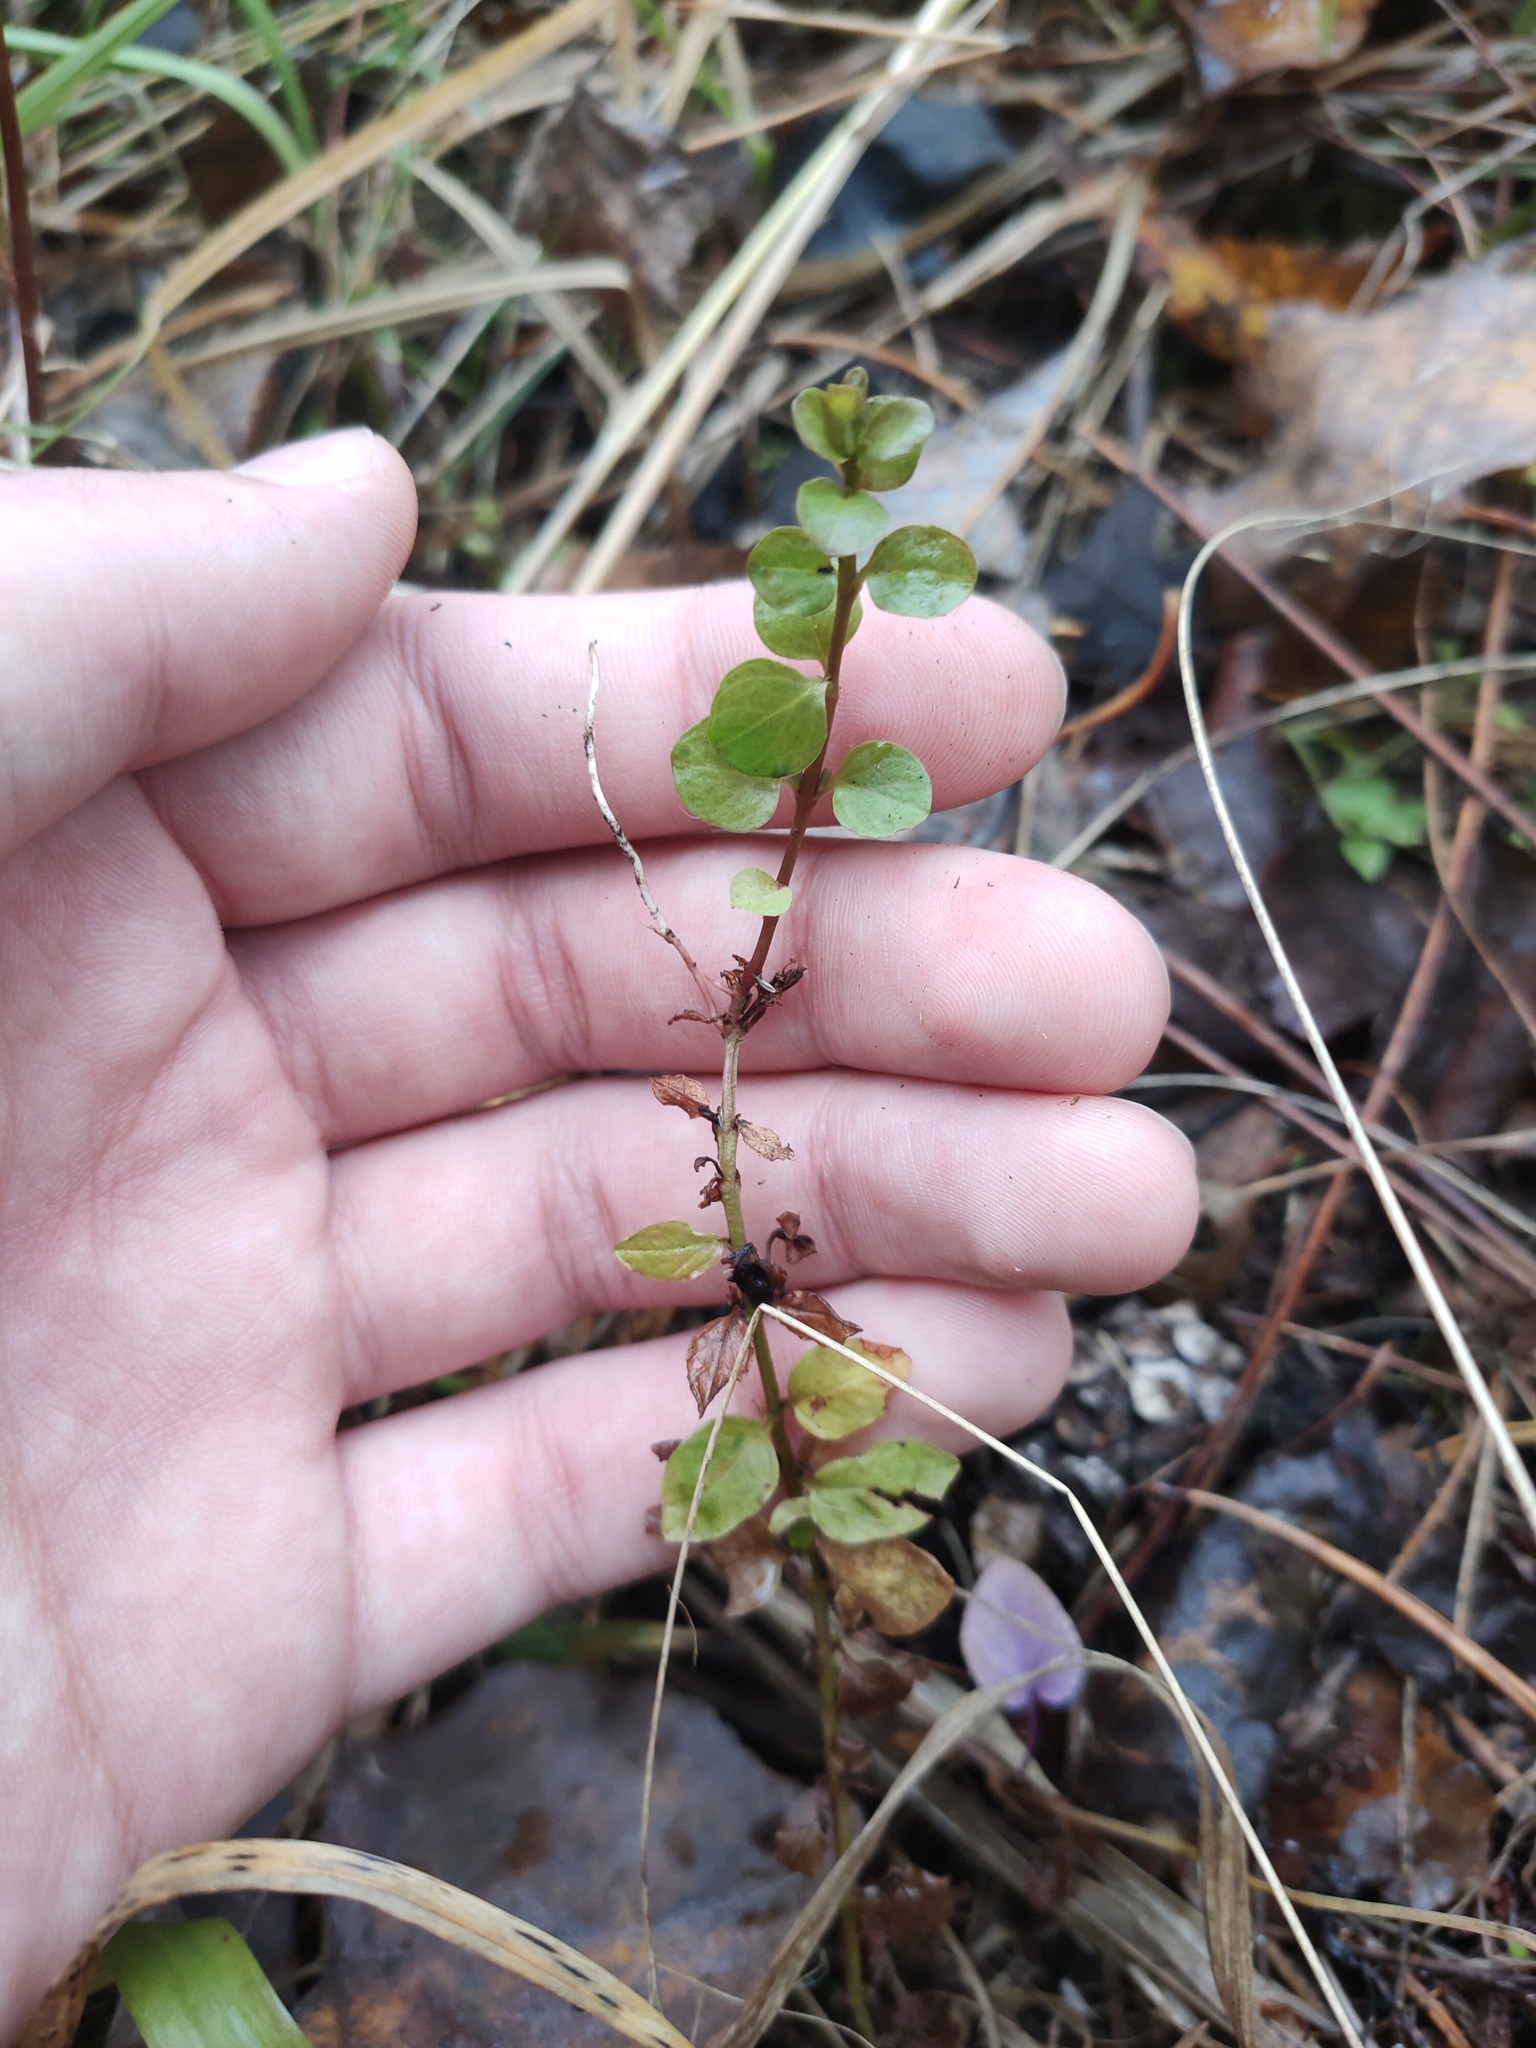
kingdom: Plantae
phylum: Tracheophyta
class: Magnoliopsida
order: Ericales
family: Primulaceae
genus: Lysimachia
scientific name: Lysimachia nummularia
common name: Moneywort
